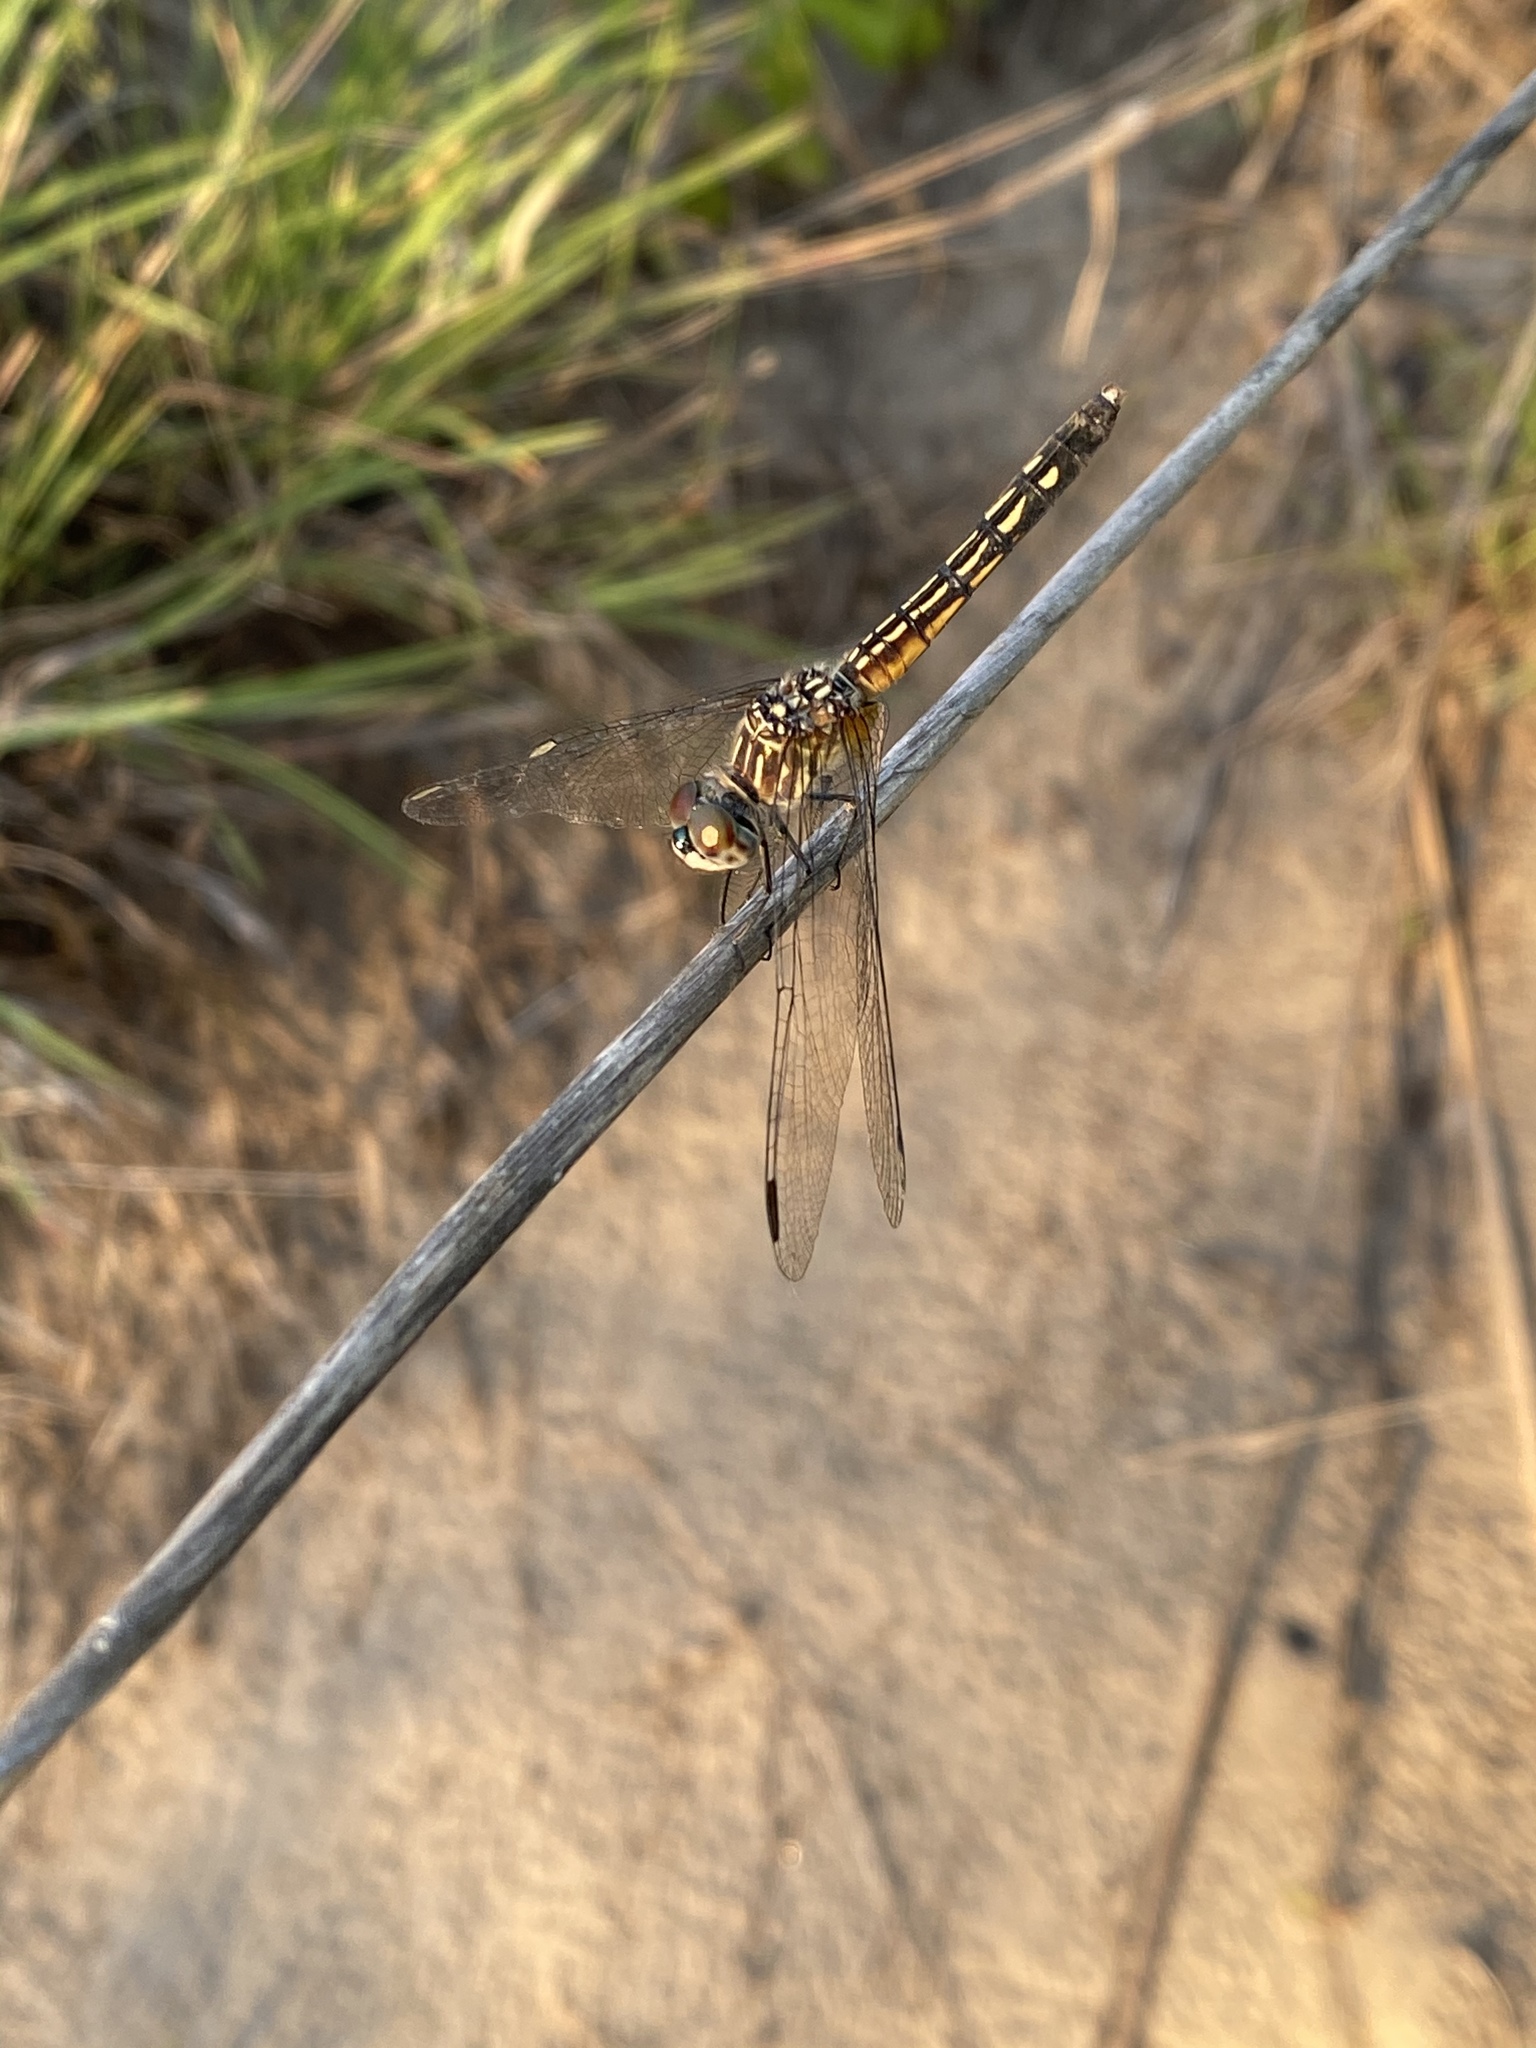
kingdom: Animalia
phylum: Arthropoda
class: Insecta
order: Odonata
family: Libellulidae
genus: Pachydiplax
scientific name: Pachydiplax longipennis
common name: Blue dasher
